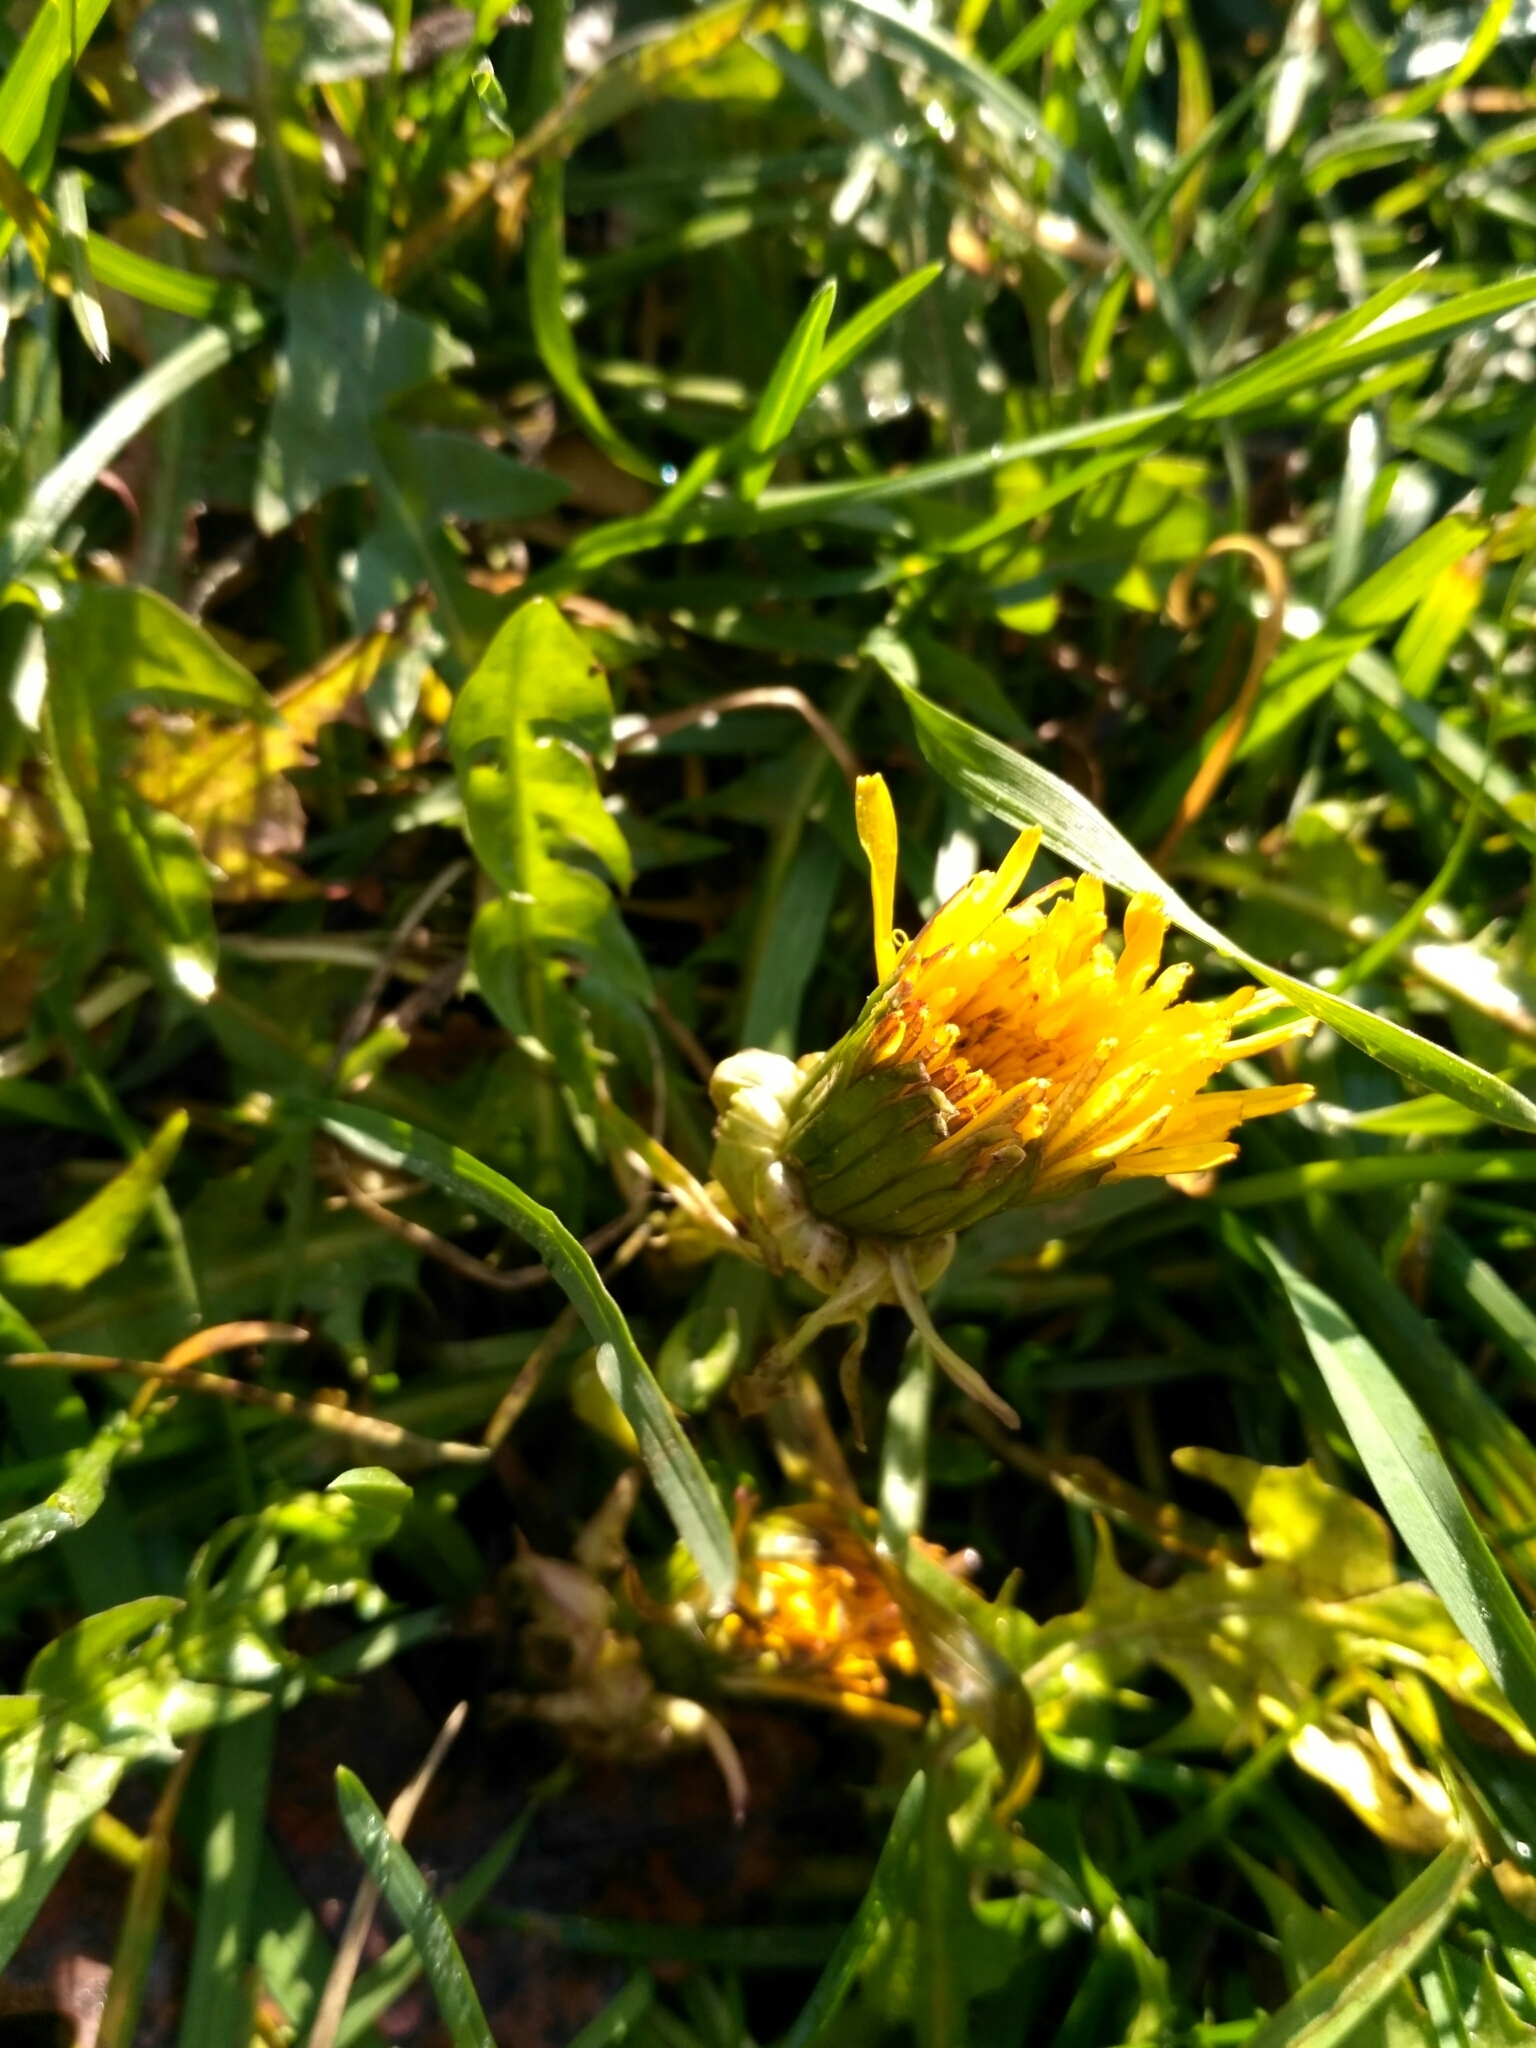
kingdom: Plantae
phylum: Tracheophyta
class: Magnoliopsida
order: Asterales
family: Asteraceae
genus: Taraxacum
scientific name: Taraxacum officinale
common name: Common dandelion
